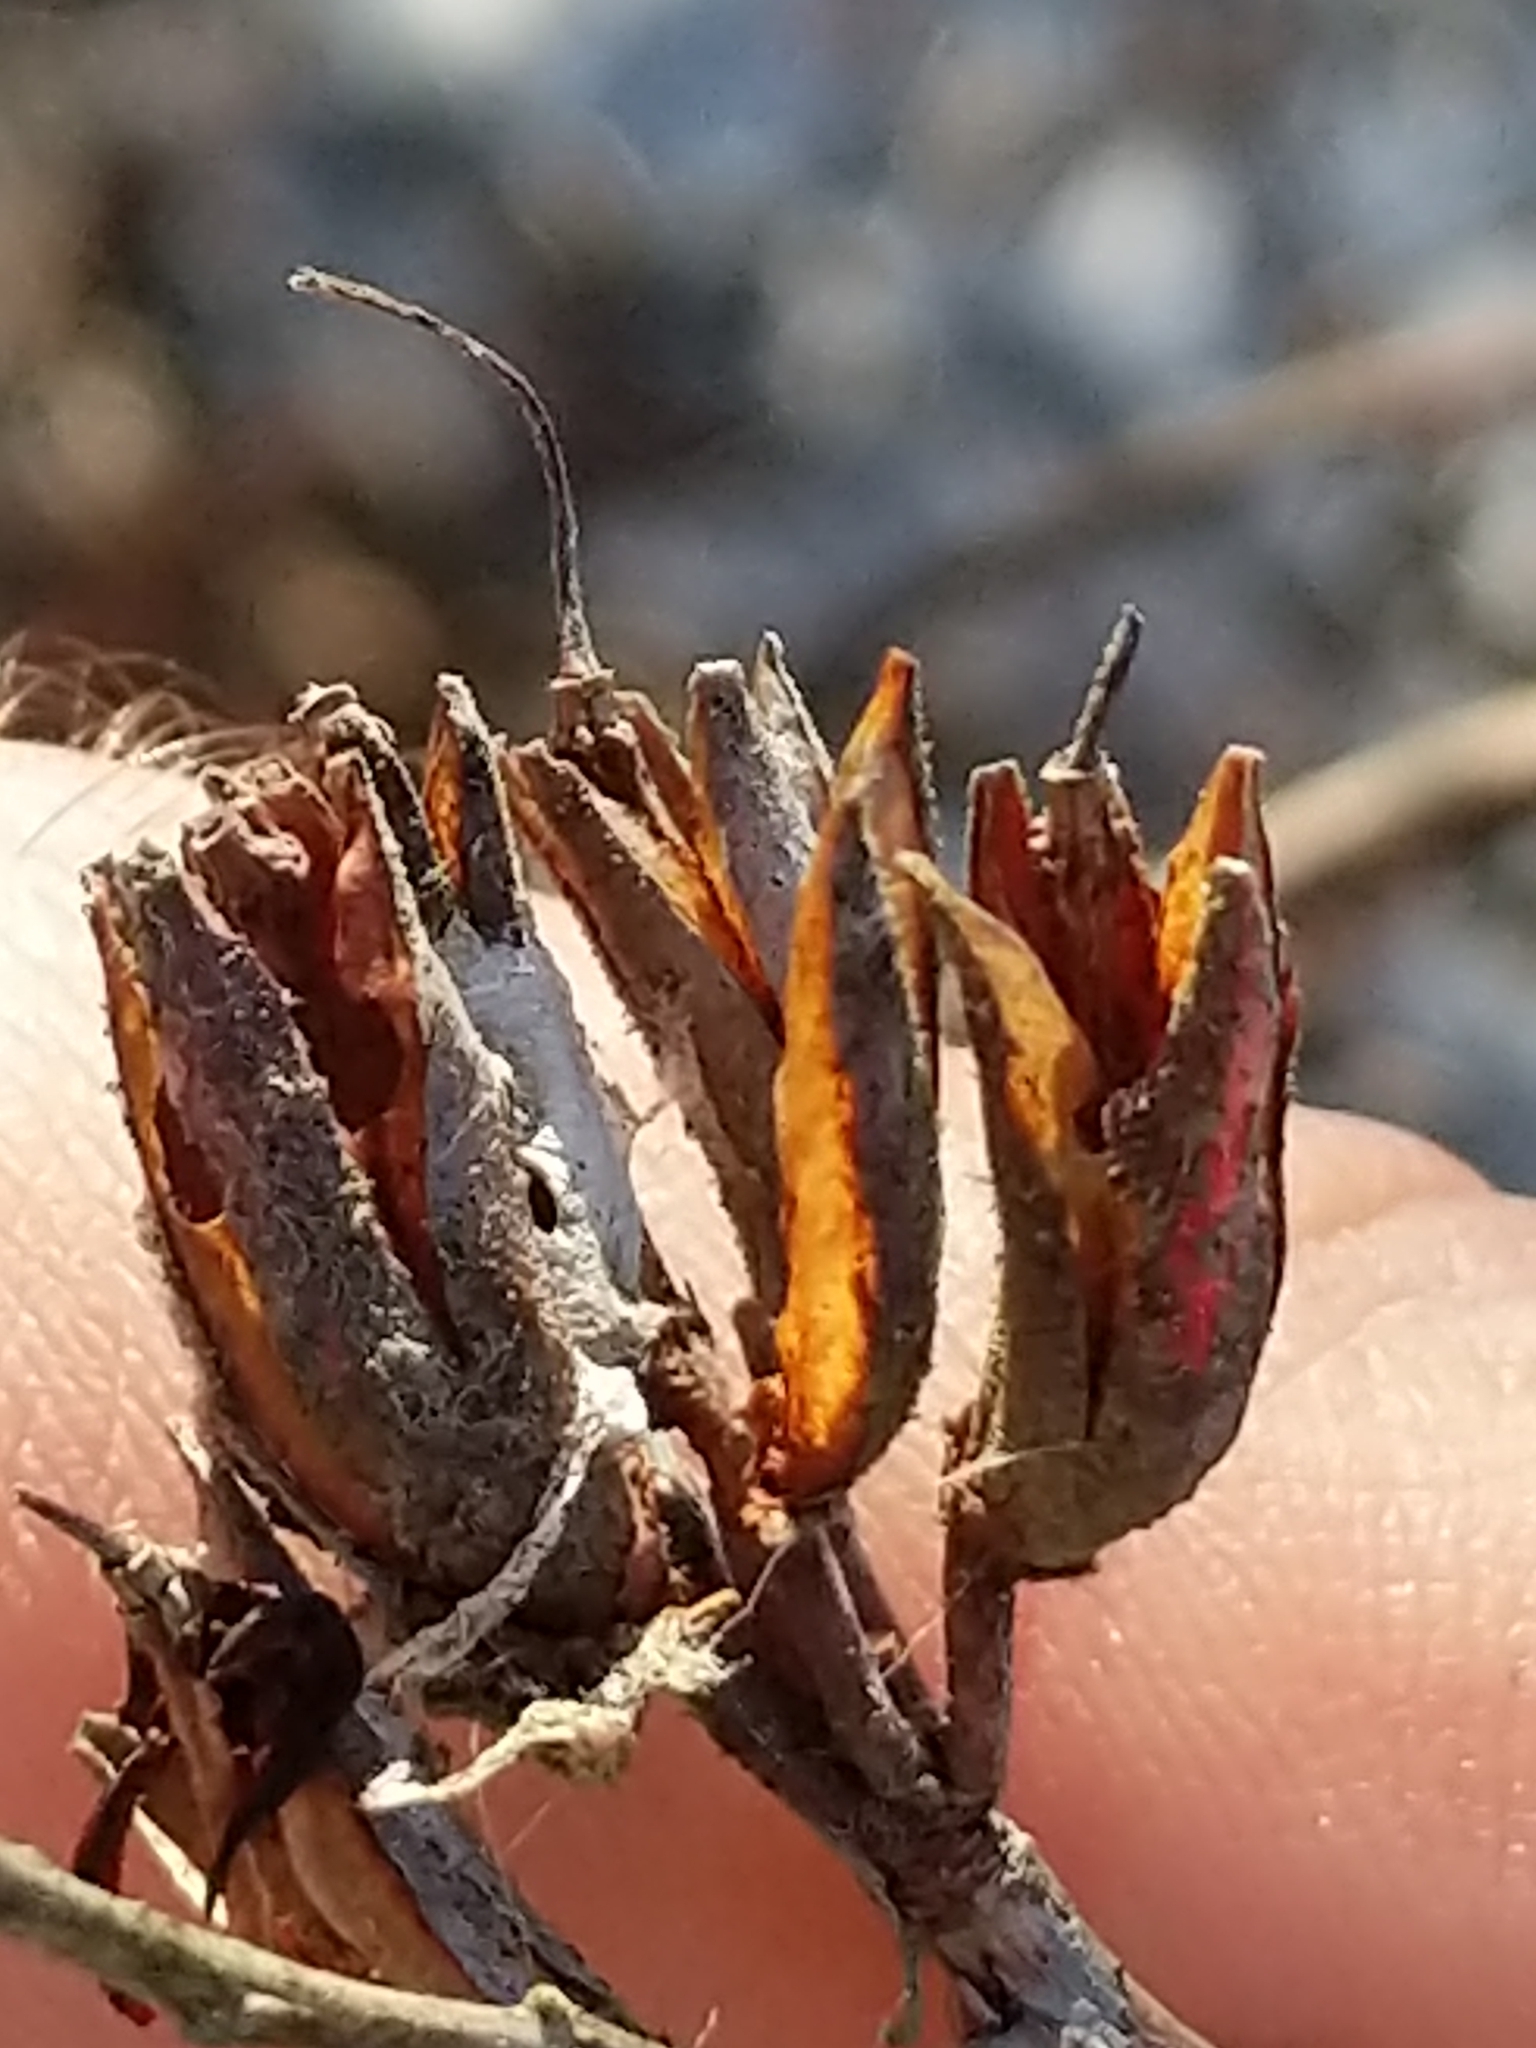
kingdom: Plantae
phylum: Tracheophyta
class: Magnoliopsida
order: Ericales
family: Ericaceae
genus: Rhododendron
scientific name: Rhododendron canadense
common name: Rhodora
